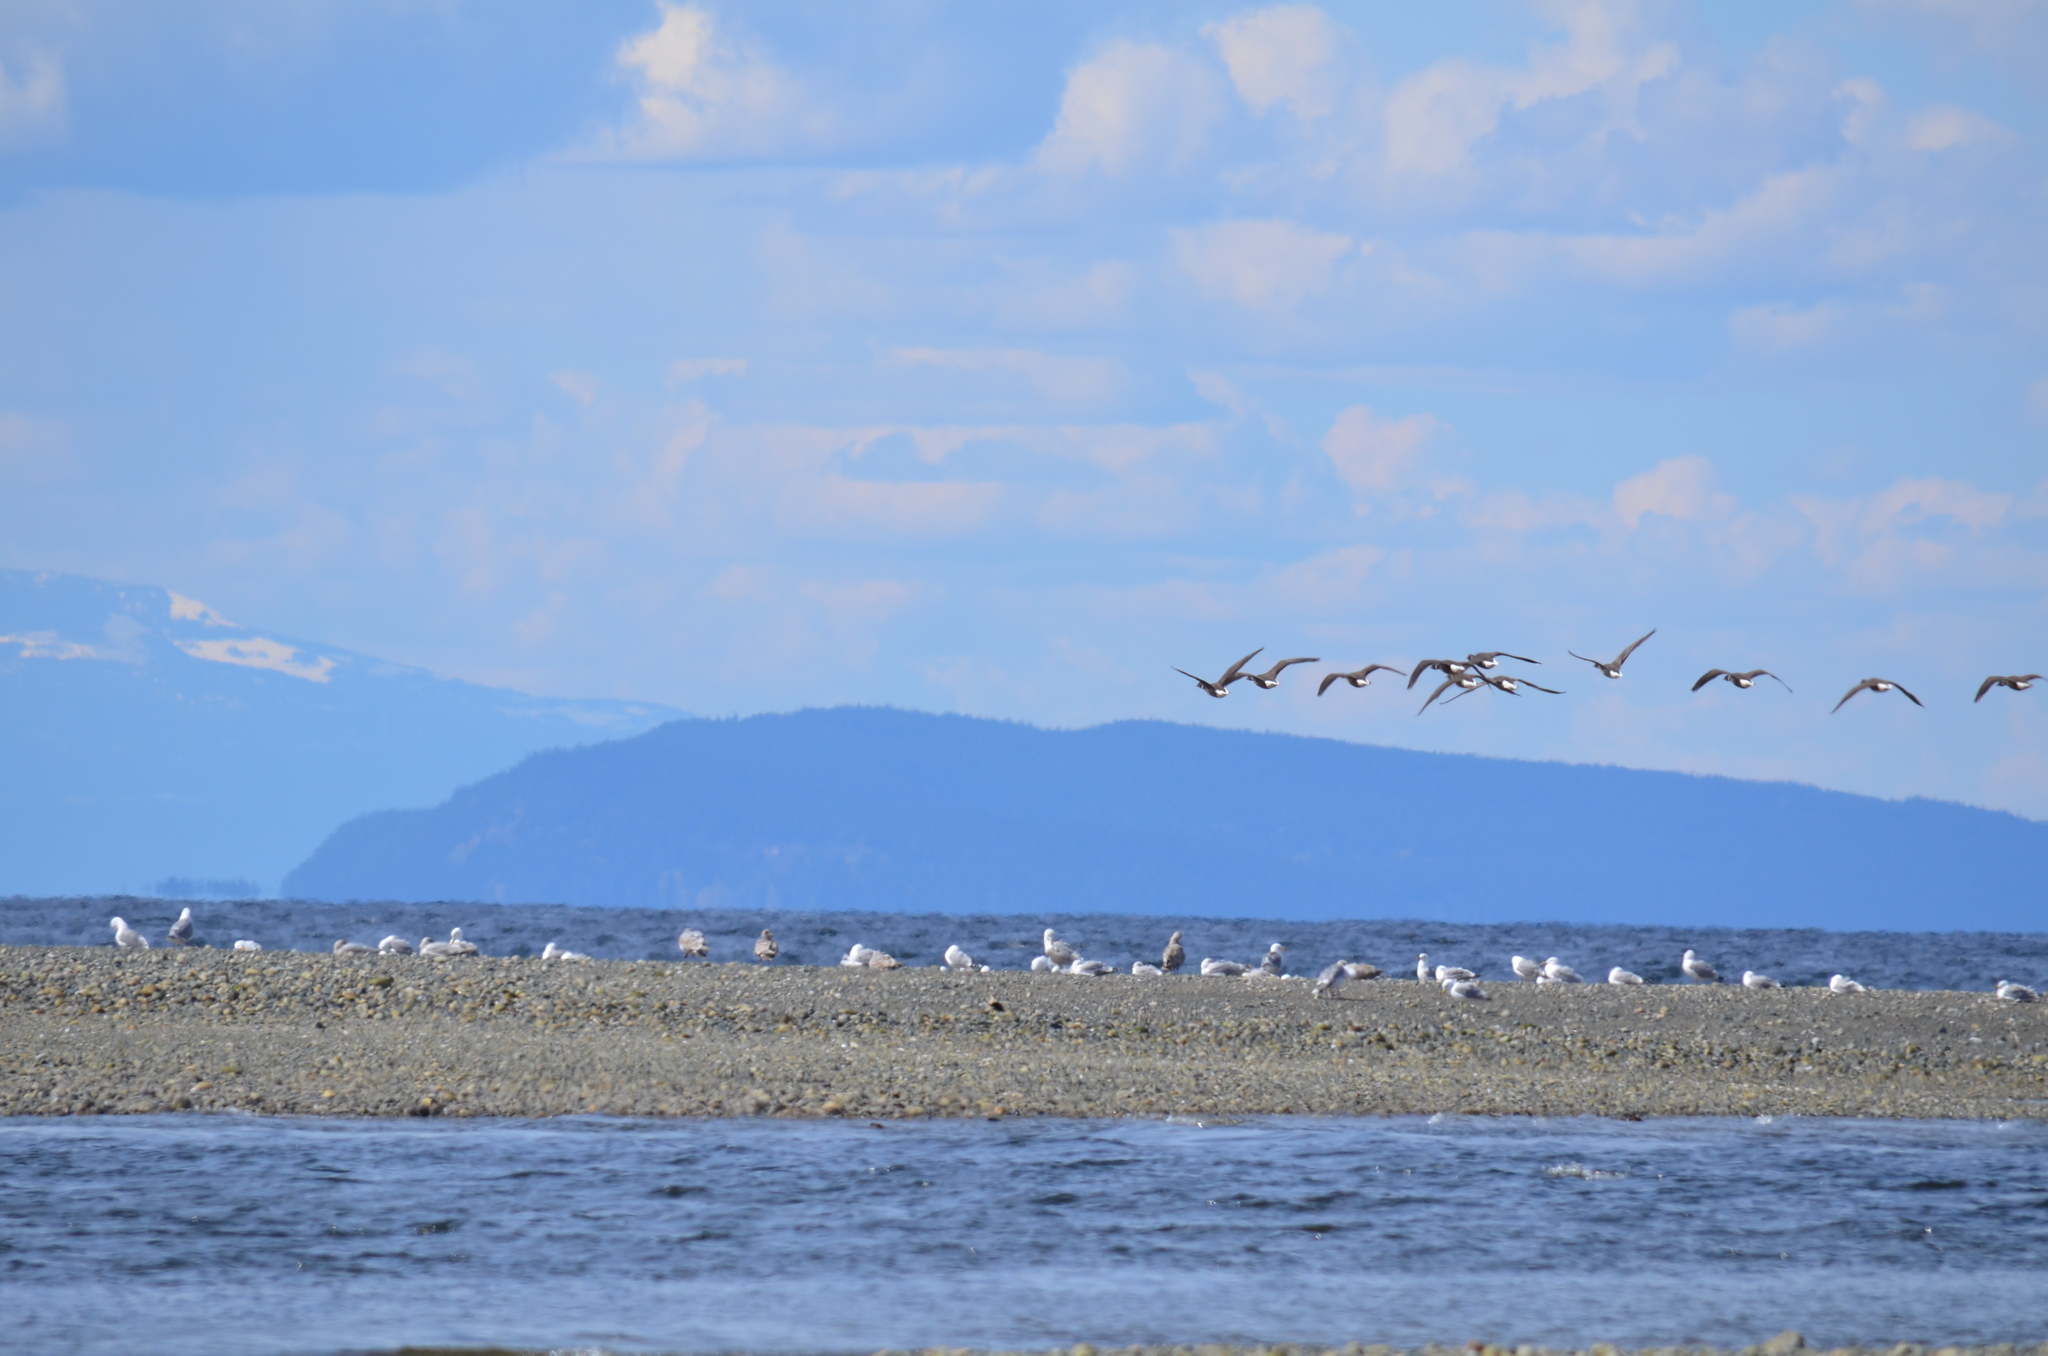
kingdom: Animalia
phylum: Chordata
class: Aves
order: Anseriformes
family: Anatidae
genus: Branta
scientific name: Branta bernicla
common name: Brant goose
